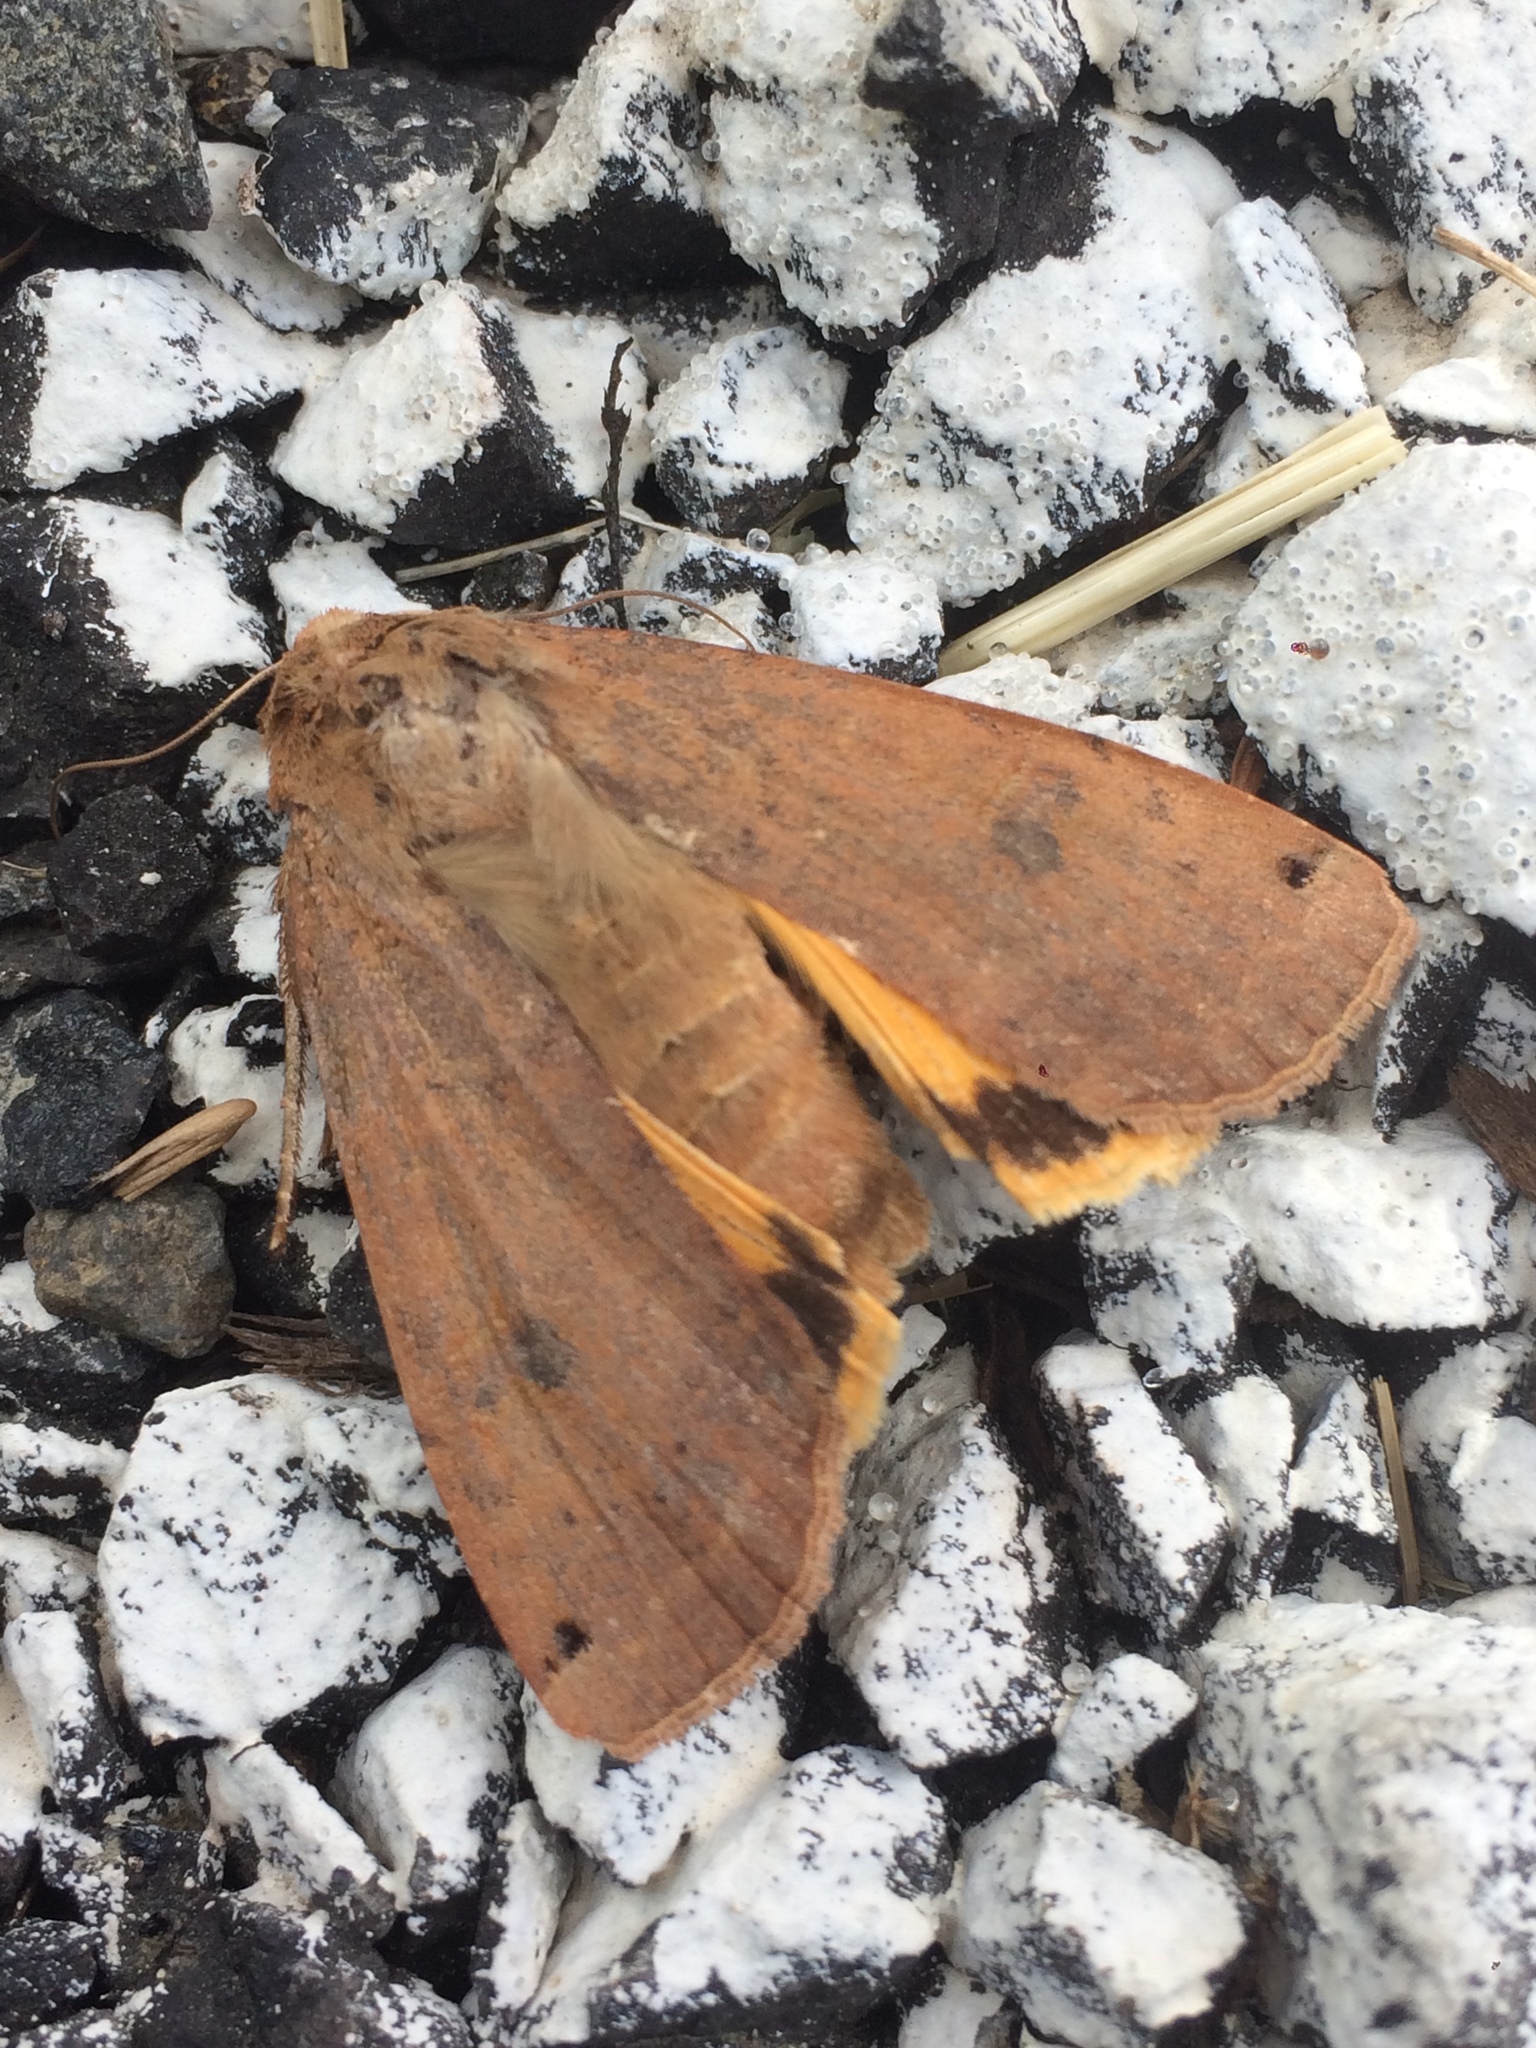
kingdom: Animalia
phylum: Arthropoda
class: Insecta
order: Lepidoptera
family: Noctuidae
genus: Noctua
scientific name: Noctua pronuba
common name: Large yellow underwing
